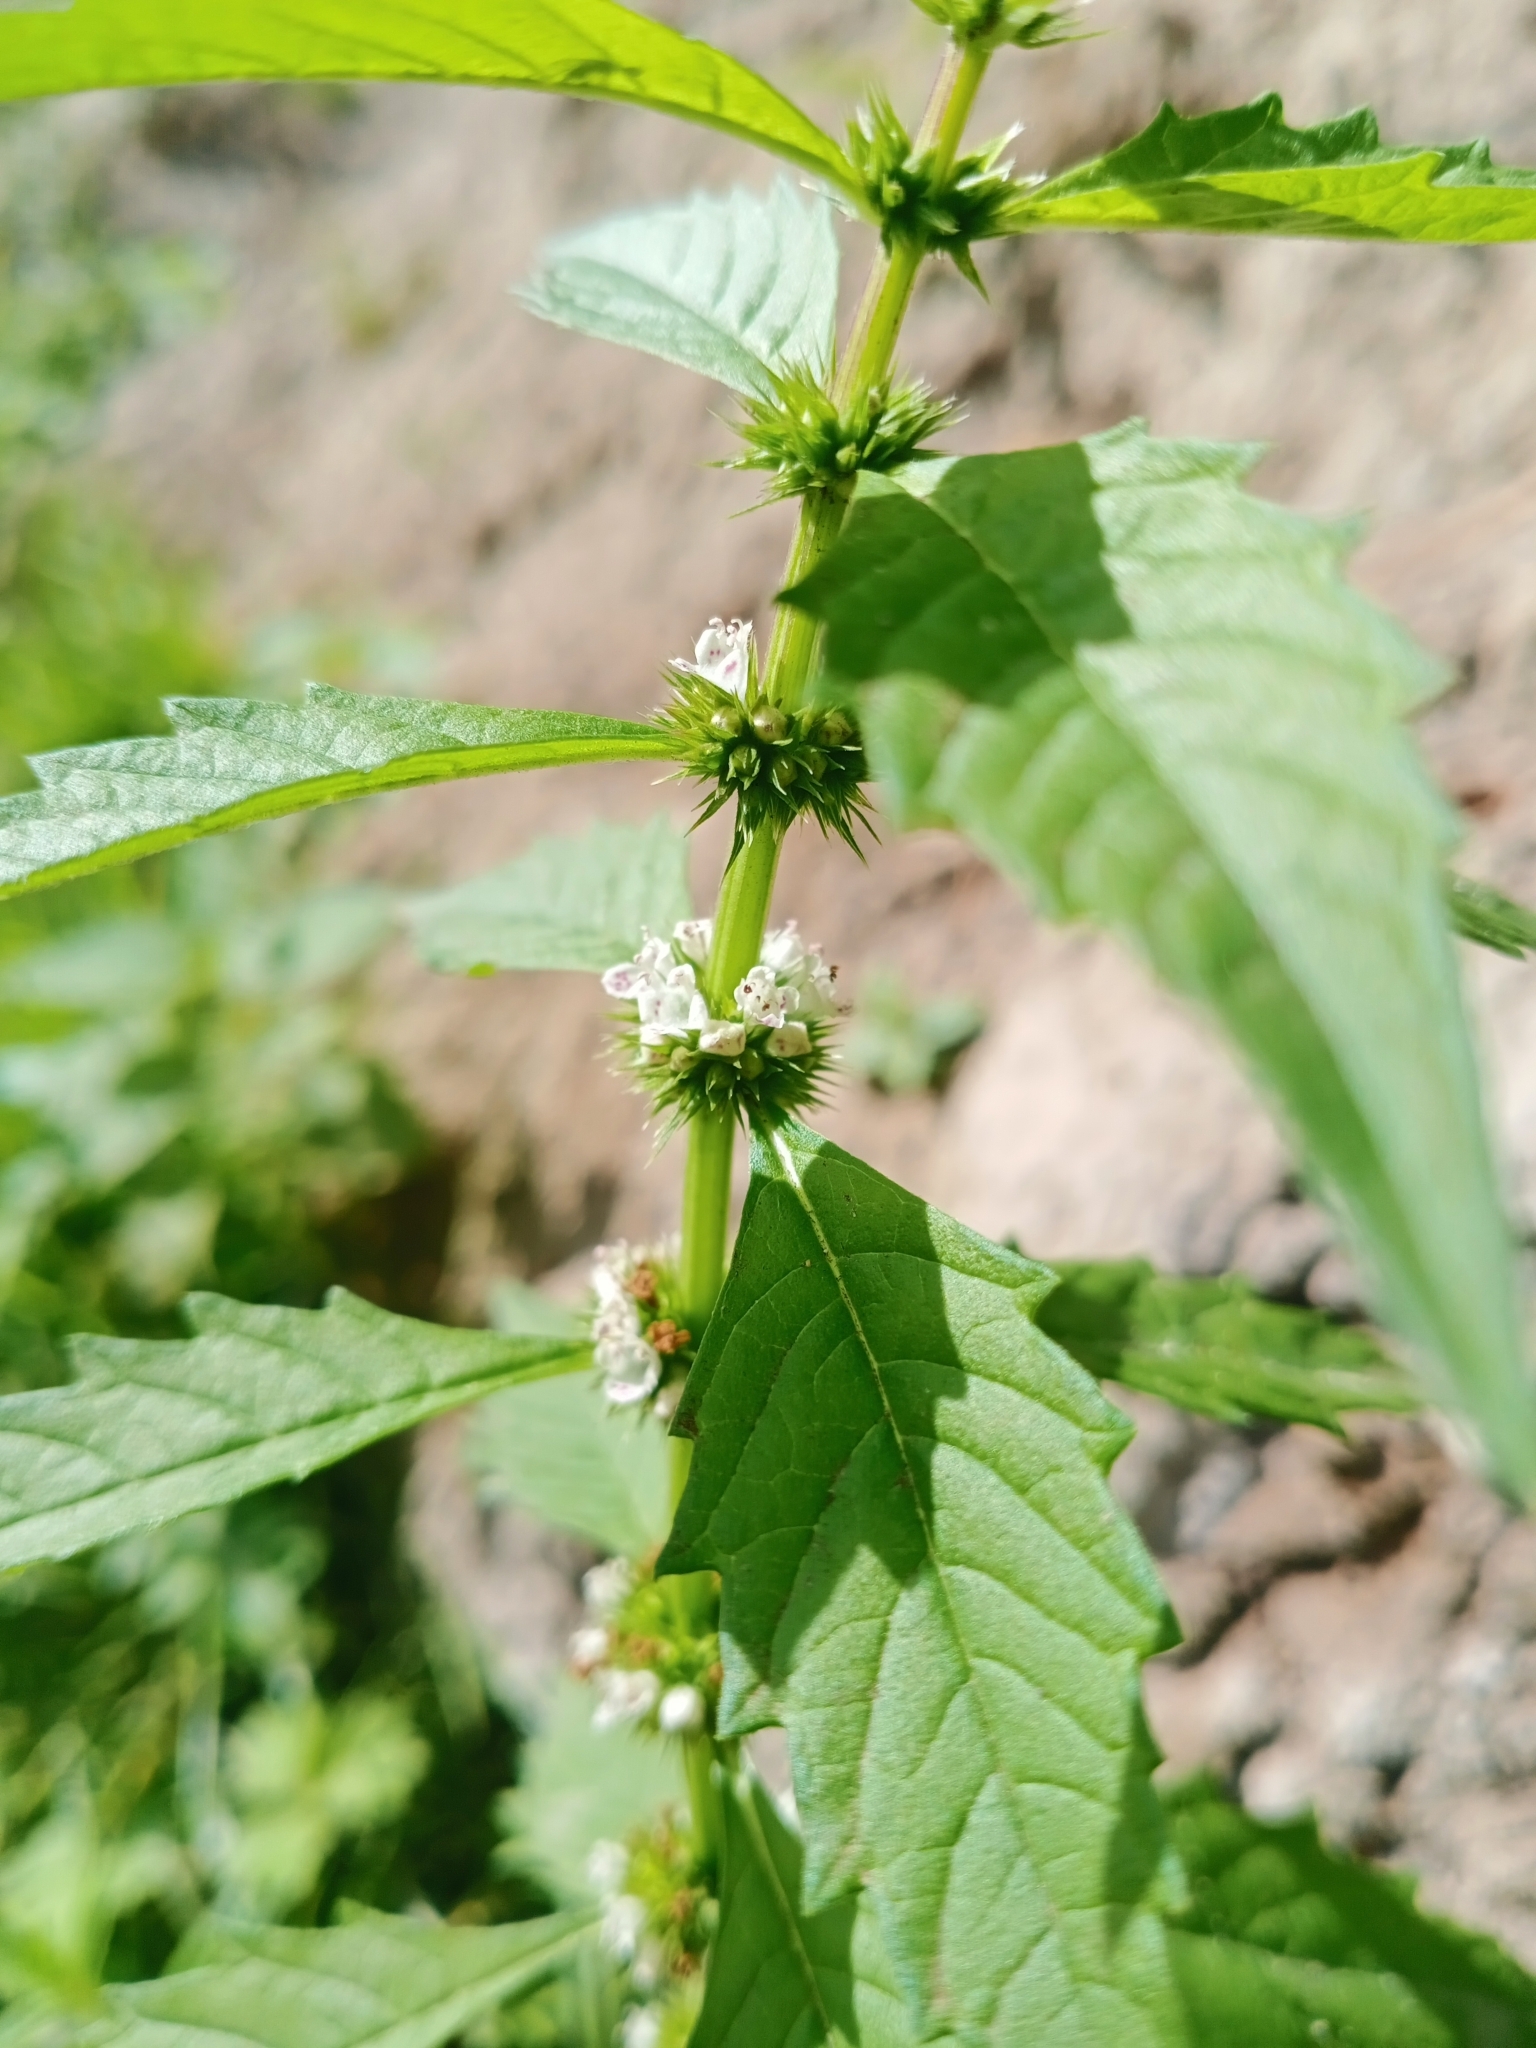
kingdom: Plantae
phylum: Tracheophyta
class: Magnoliopsida
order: Lamiales
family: Lamiaceae
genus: Lycopus
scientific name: Lycopus europaeus
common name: European bugleweed
